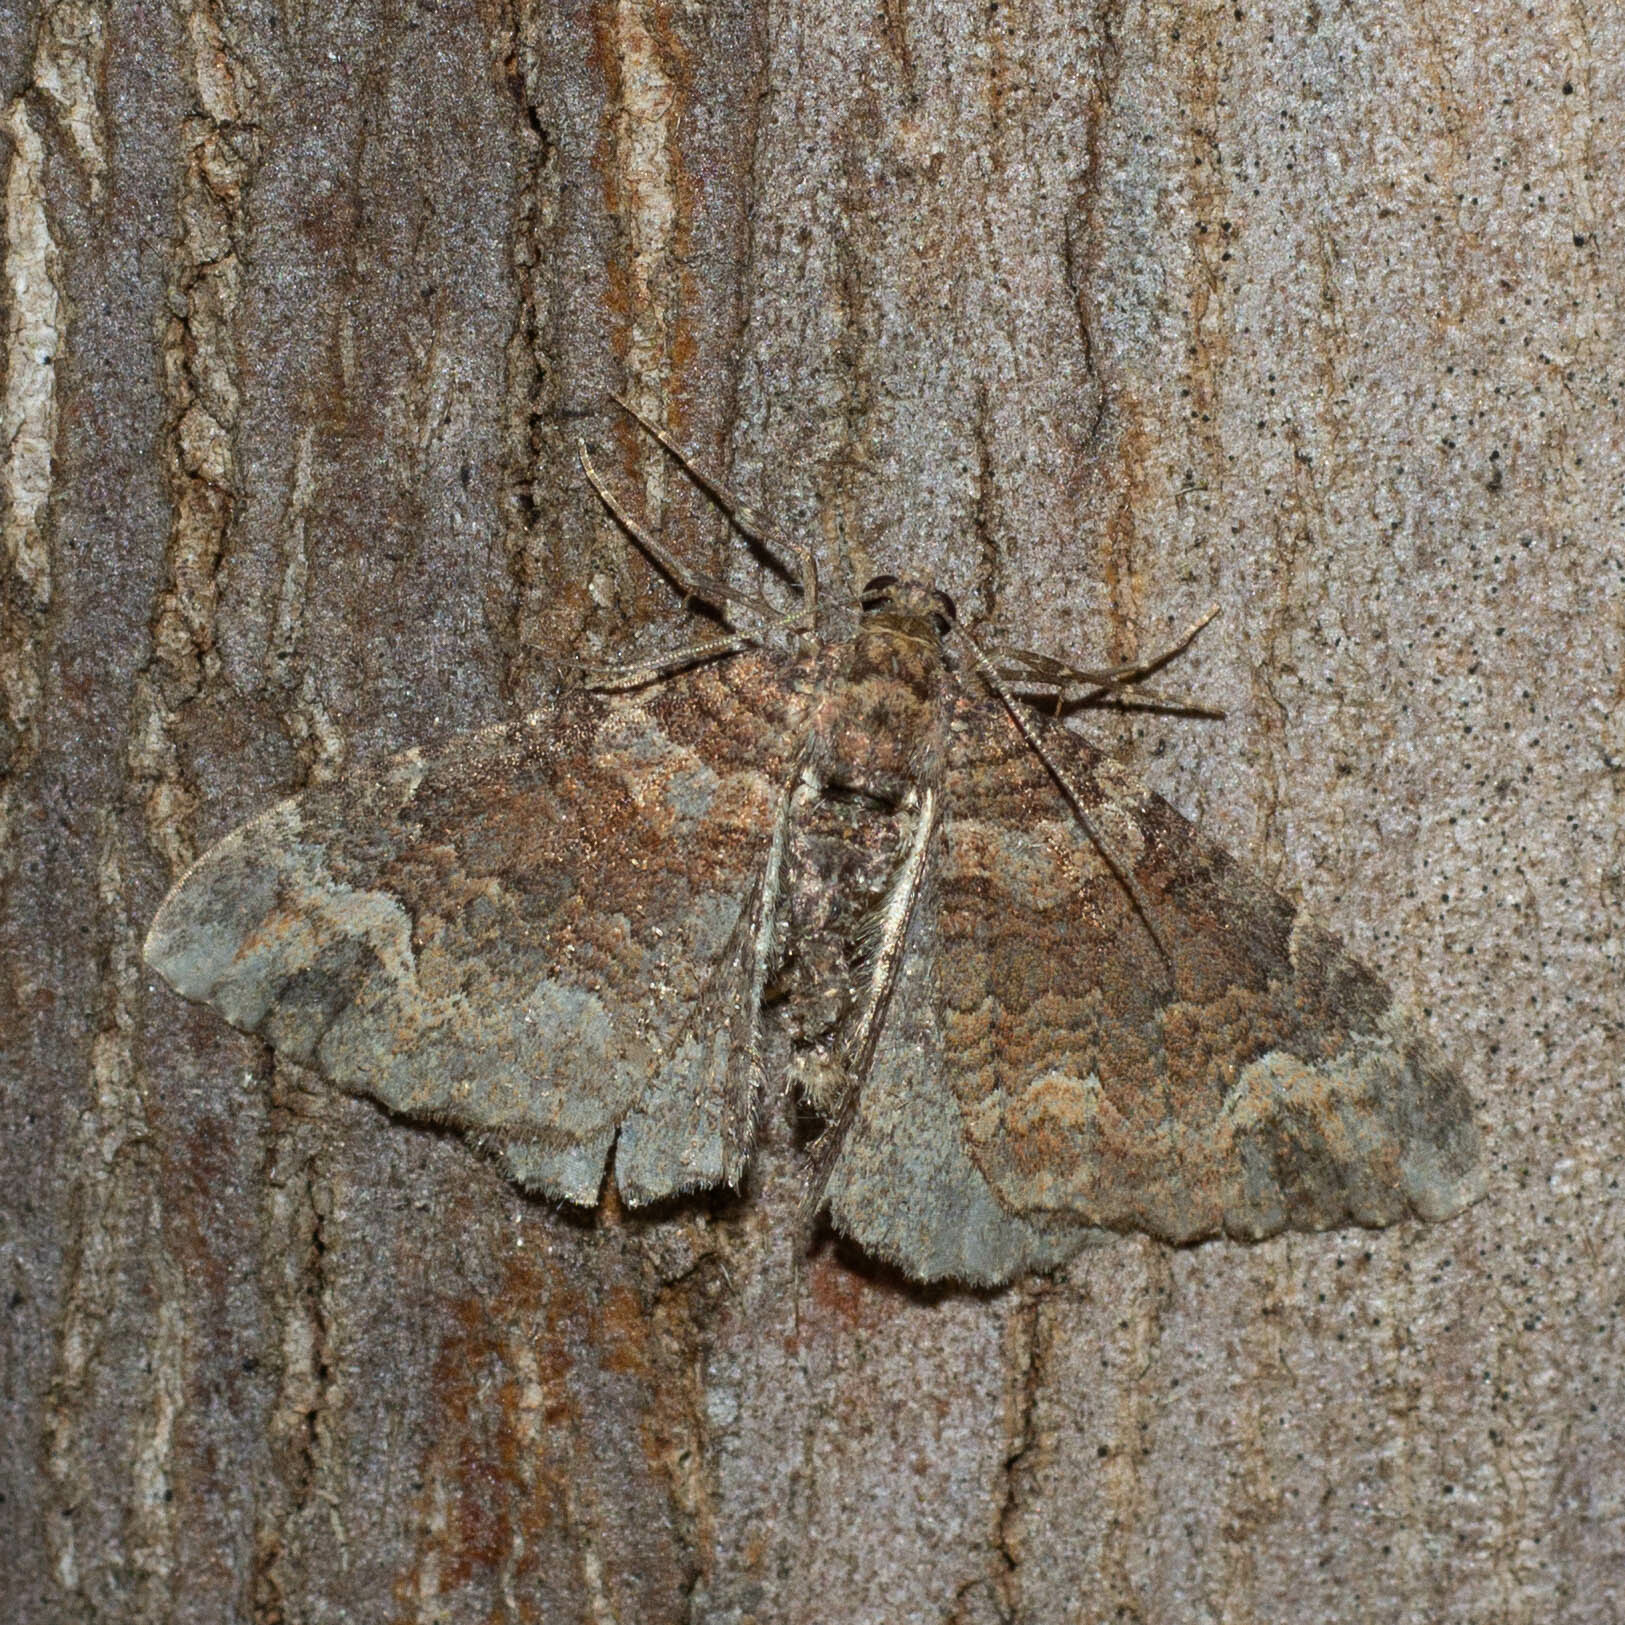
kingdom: Animalia
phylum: Arthropoda
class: Insecta
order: Lepidoptera
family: Geometridae
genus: Catarhoe
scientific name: Catarhoe basochesiata
